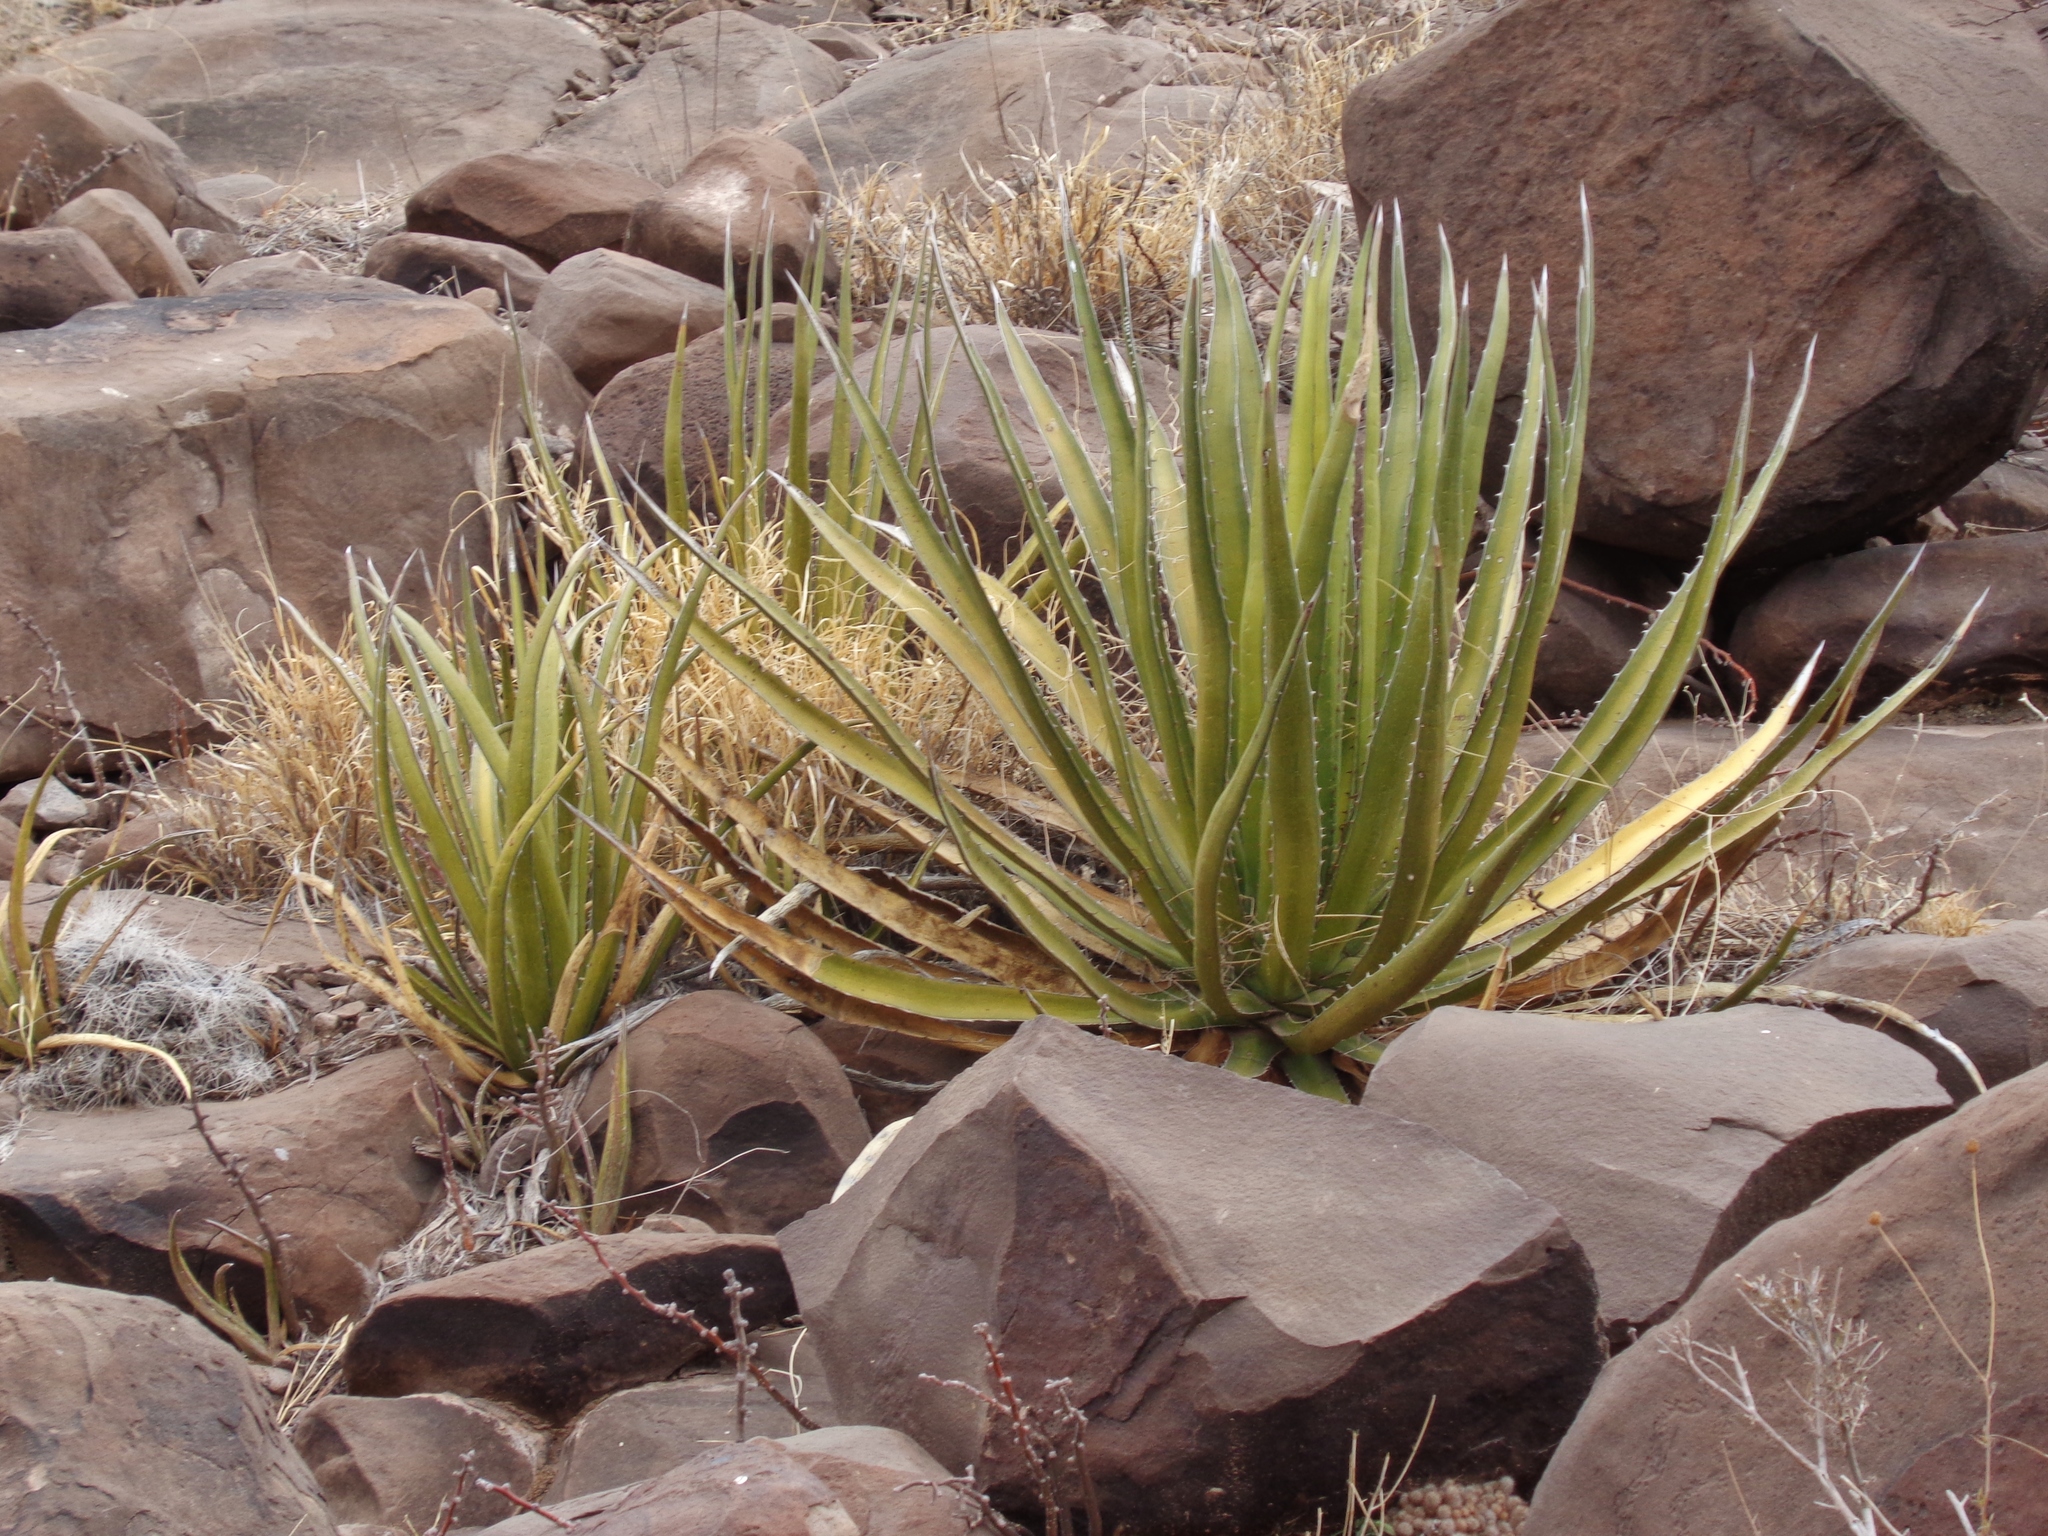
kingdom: Plantae
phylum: Tracheophyta
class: Liliopsida
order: Asparagales
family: Asparagaceae
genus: Agave
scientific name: Agave lechuguilla
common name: Lecheguilla agave
